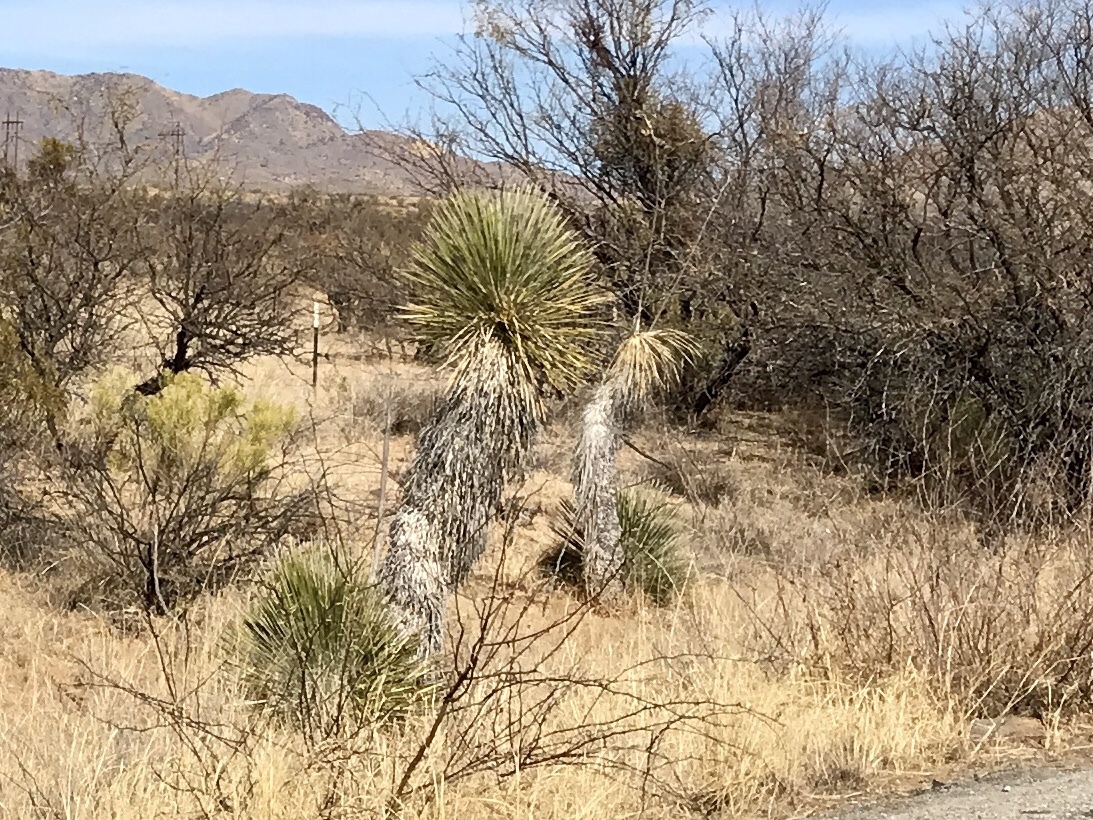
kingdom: Plantae
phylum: Tracheophyta
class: Liliopsida
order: Asparagales
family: Asparagaceae
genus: Yucca
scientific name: Yucca elata
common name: Palmella
